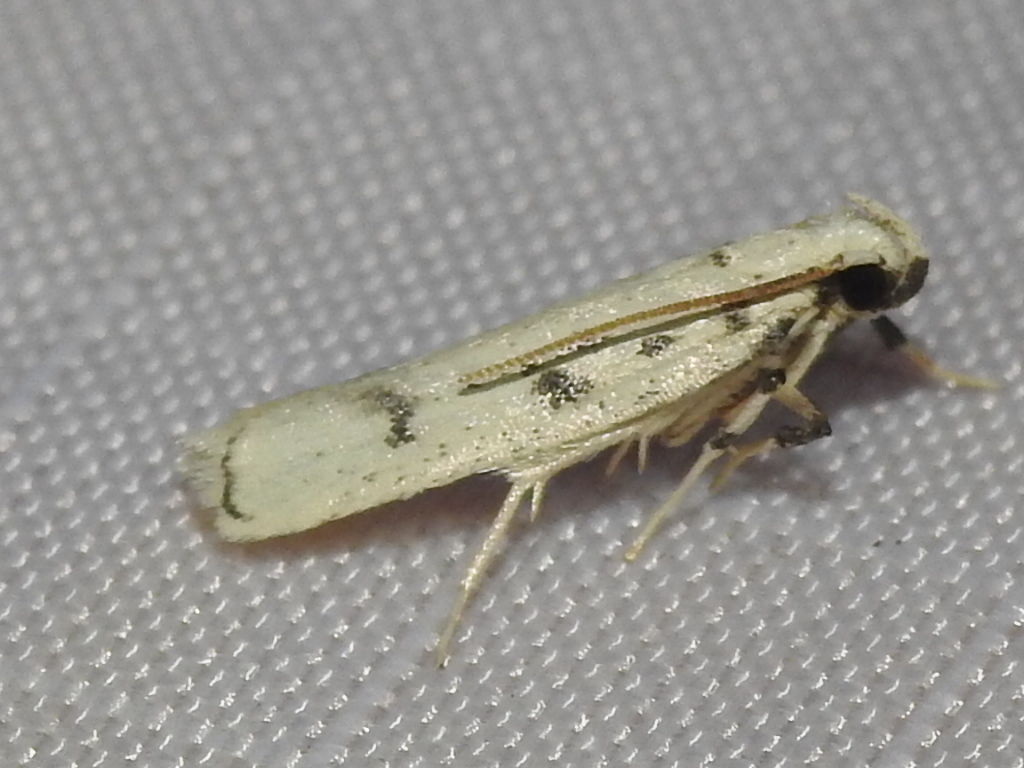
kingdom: Animalia
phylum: Arthropoda
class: Insecta
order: Lepidoptera
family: Autostichidae
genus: Glyphidocera
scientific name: Glyphidocera lactiflosella
